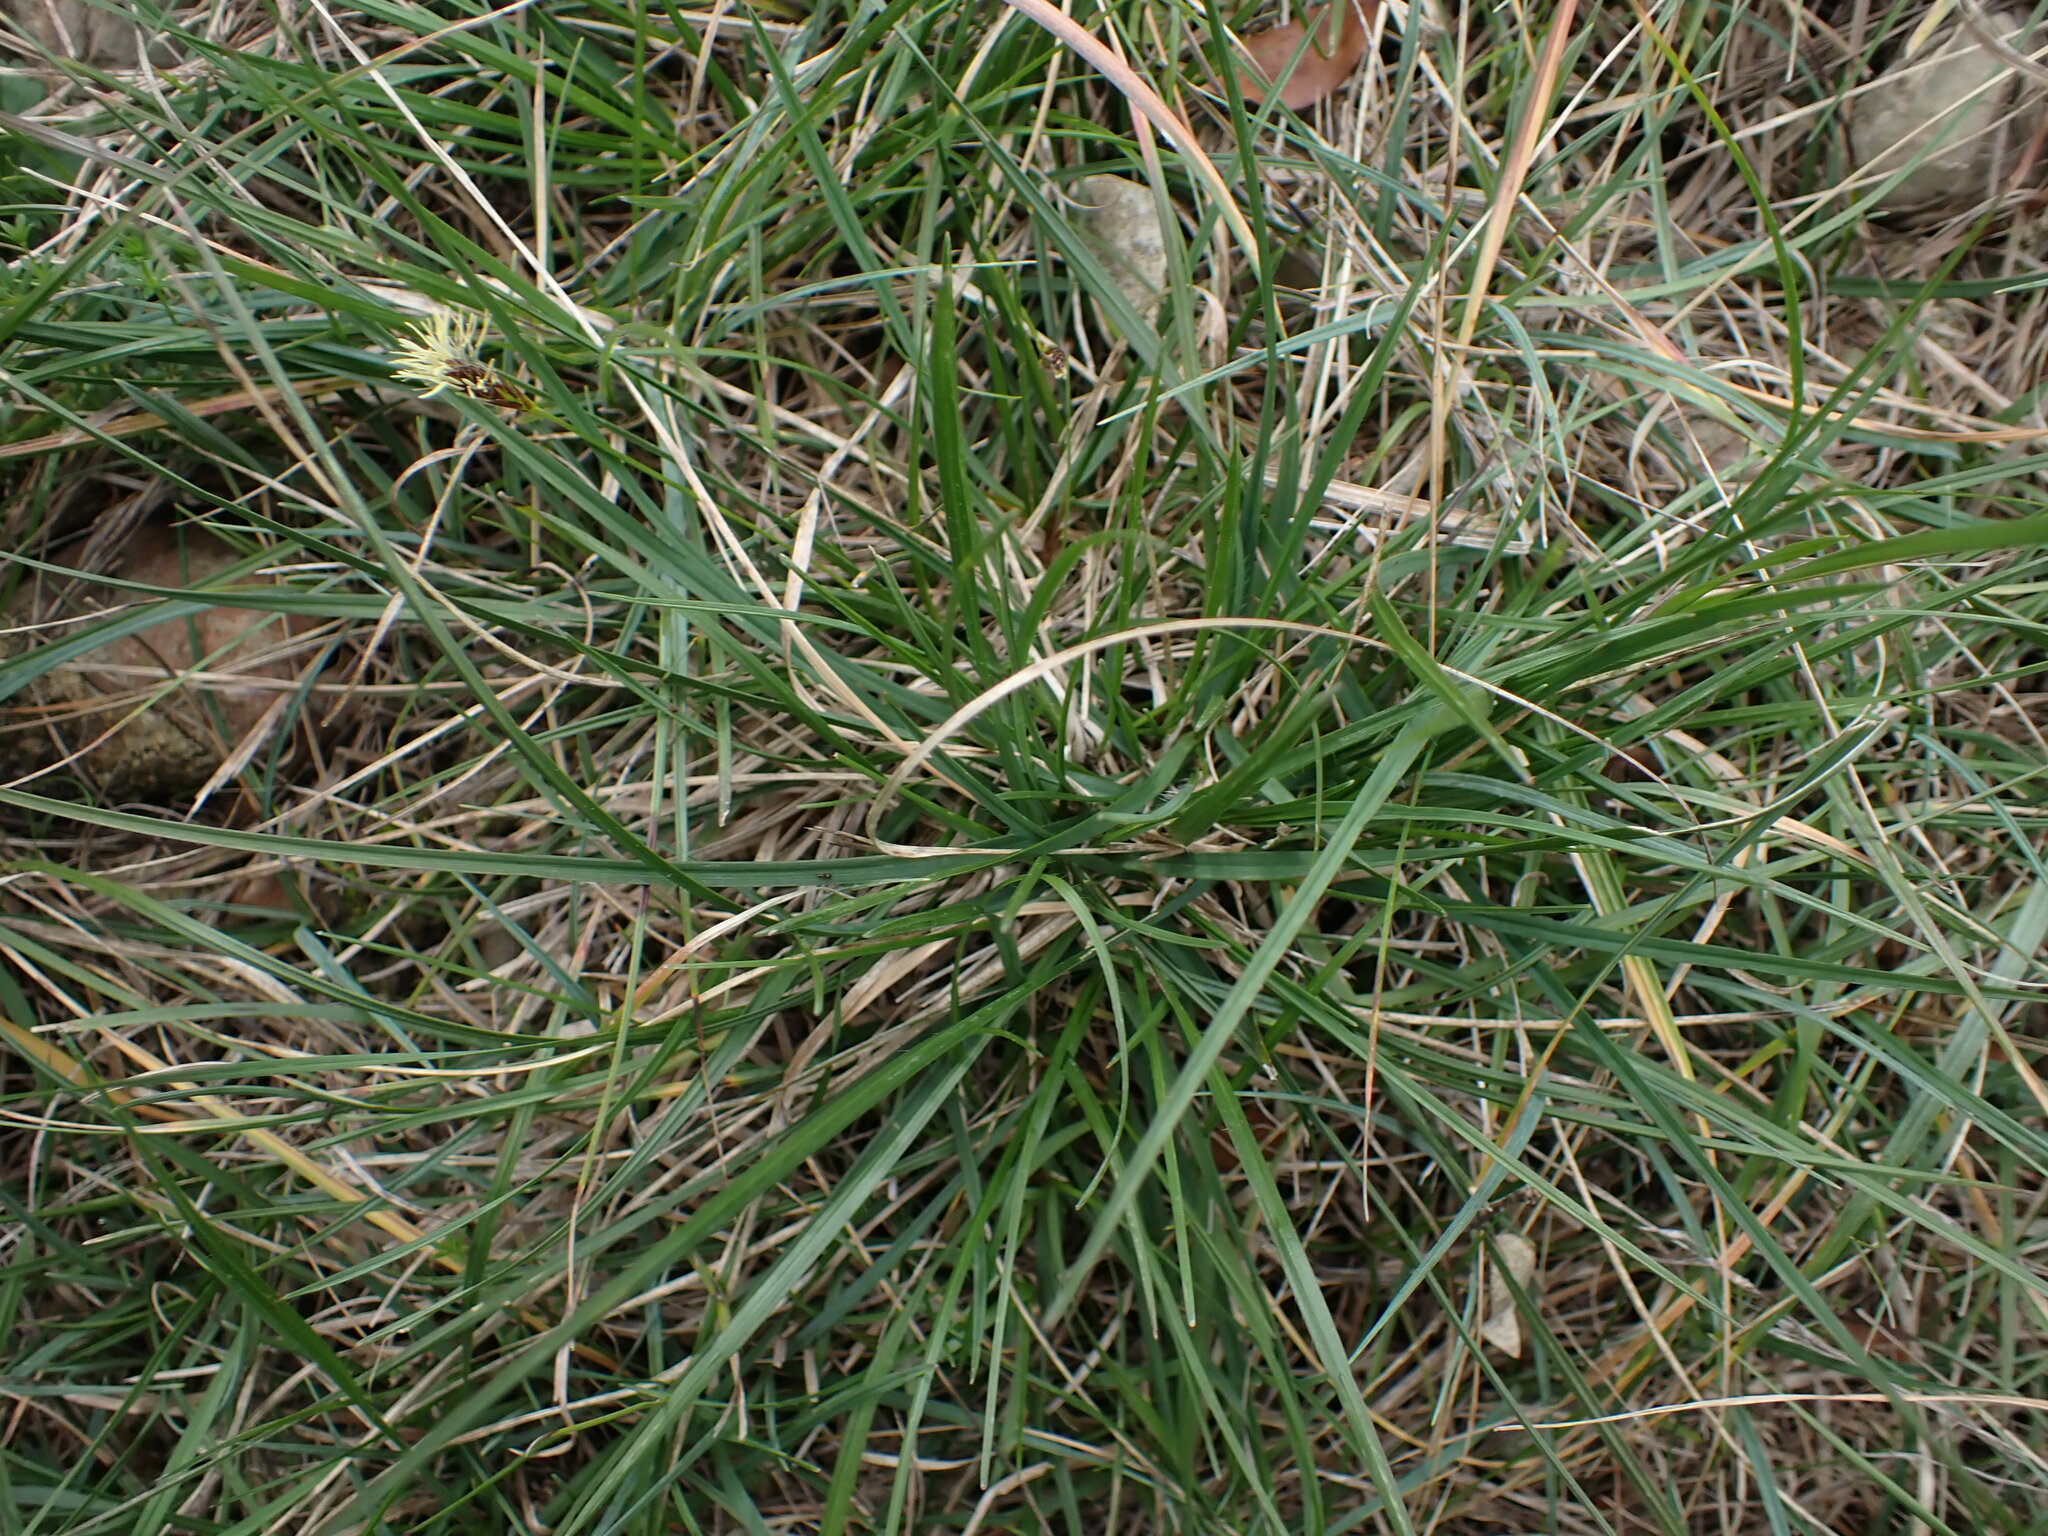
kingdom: Plantae
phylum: Tracheophyta
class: Liliopsida
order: Poales
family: Cyperaceae
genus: Carex
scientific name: Carex halleriana
